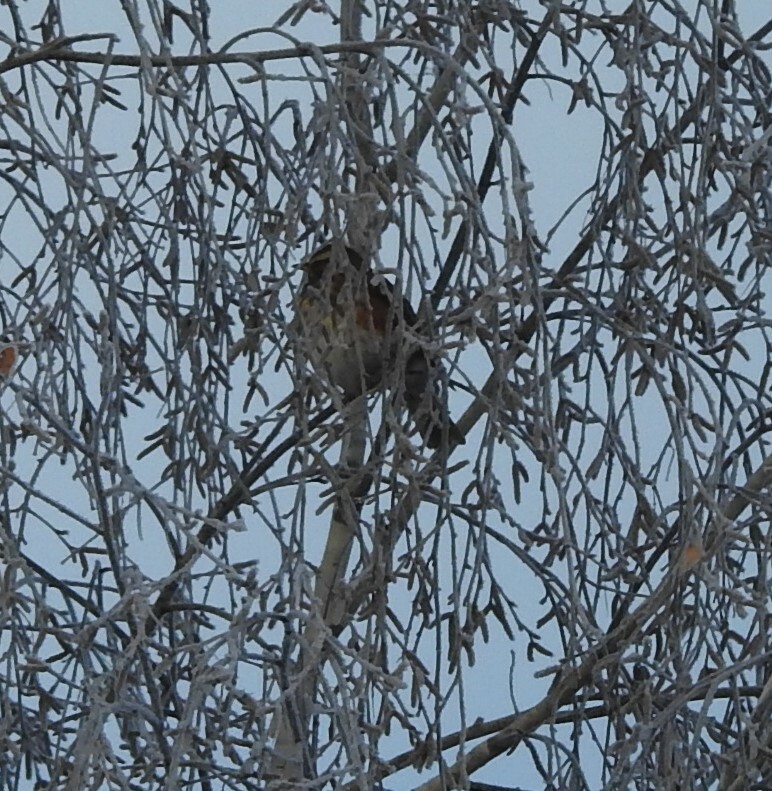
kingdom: Animalia
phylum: Chordata
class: Aves
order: Passeriformes
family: Turdidae
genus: Turdus
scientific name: Turdus iliacus
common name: Redwing
